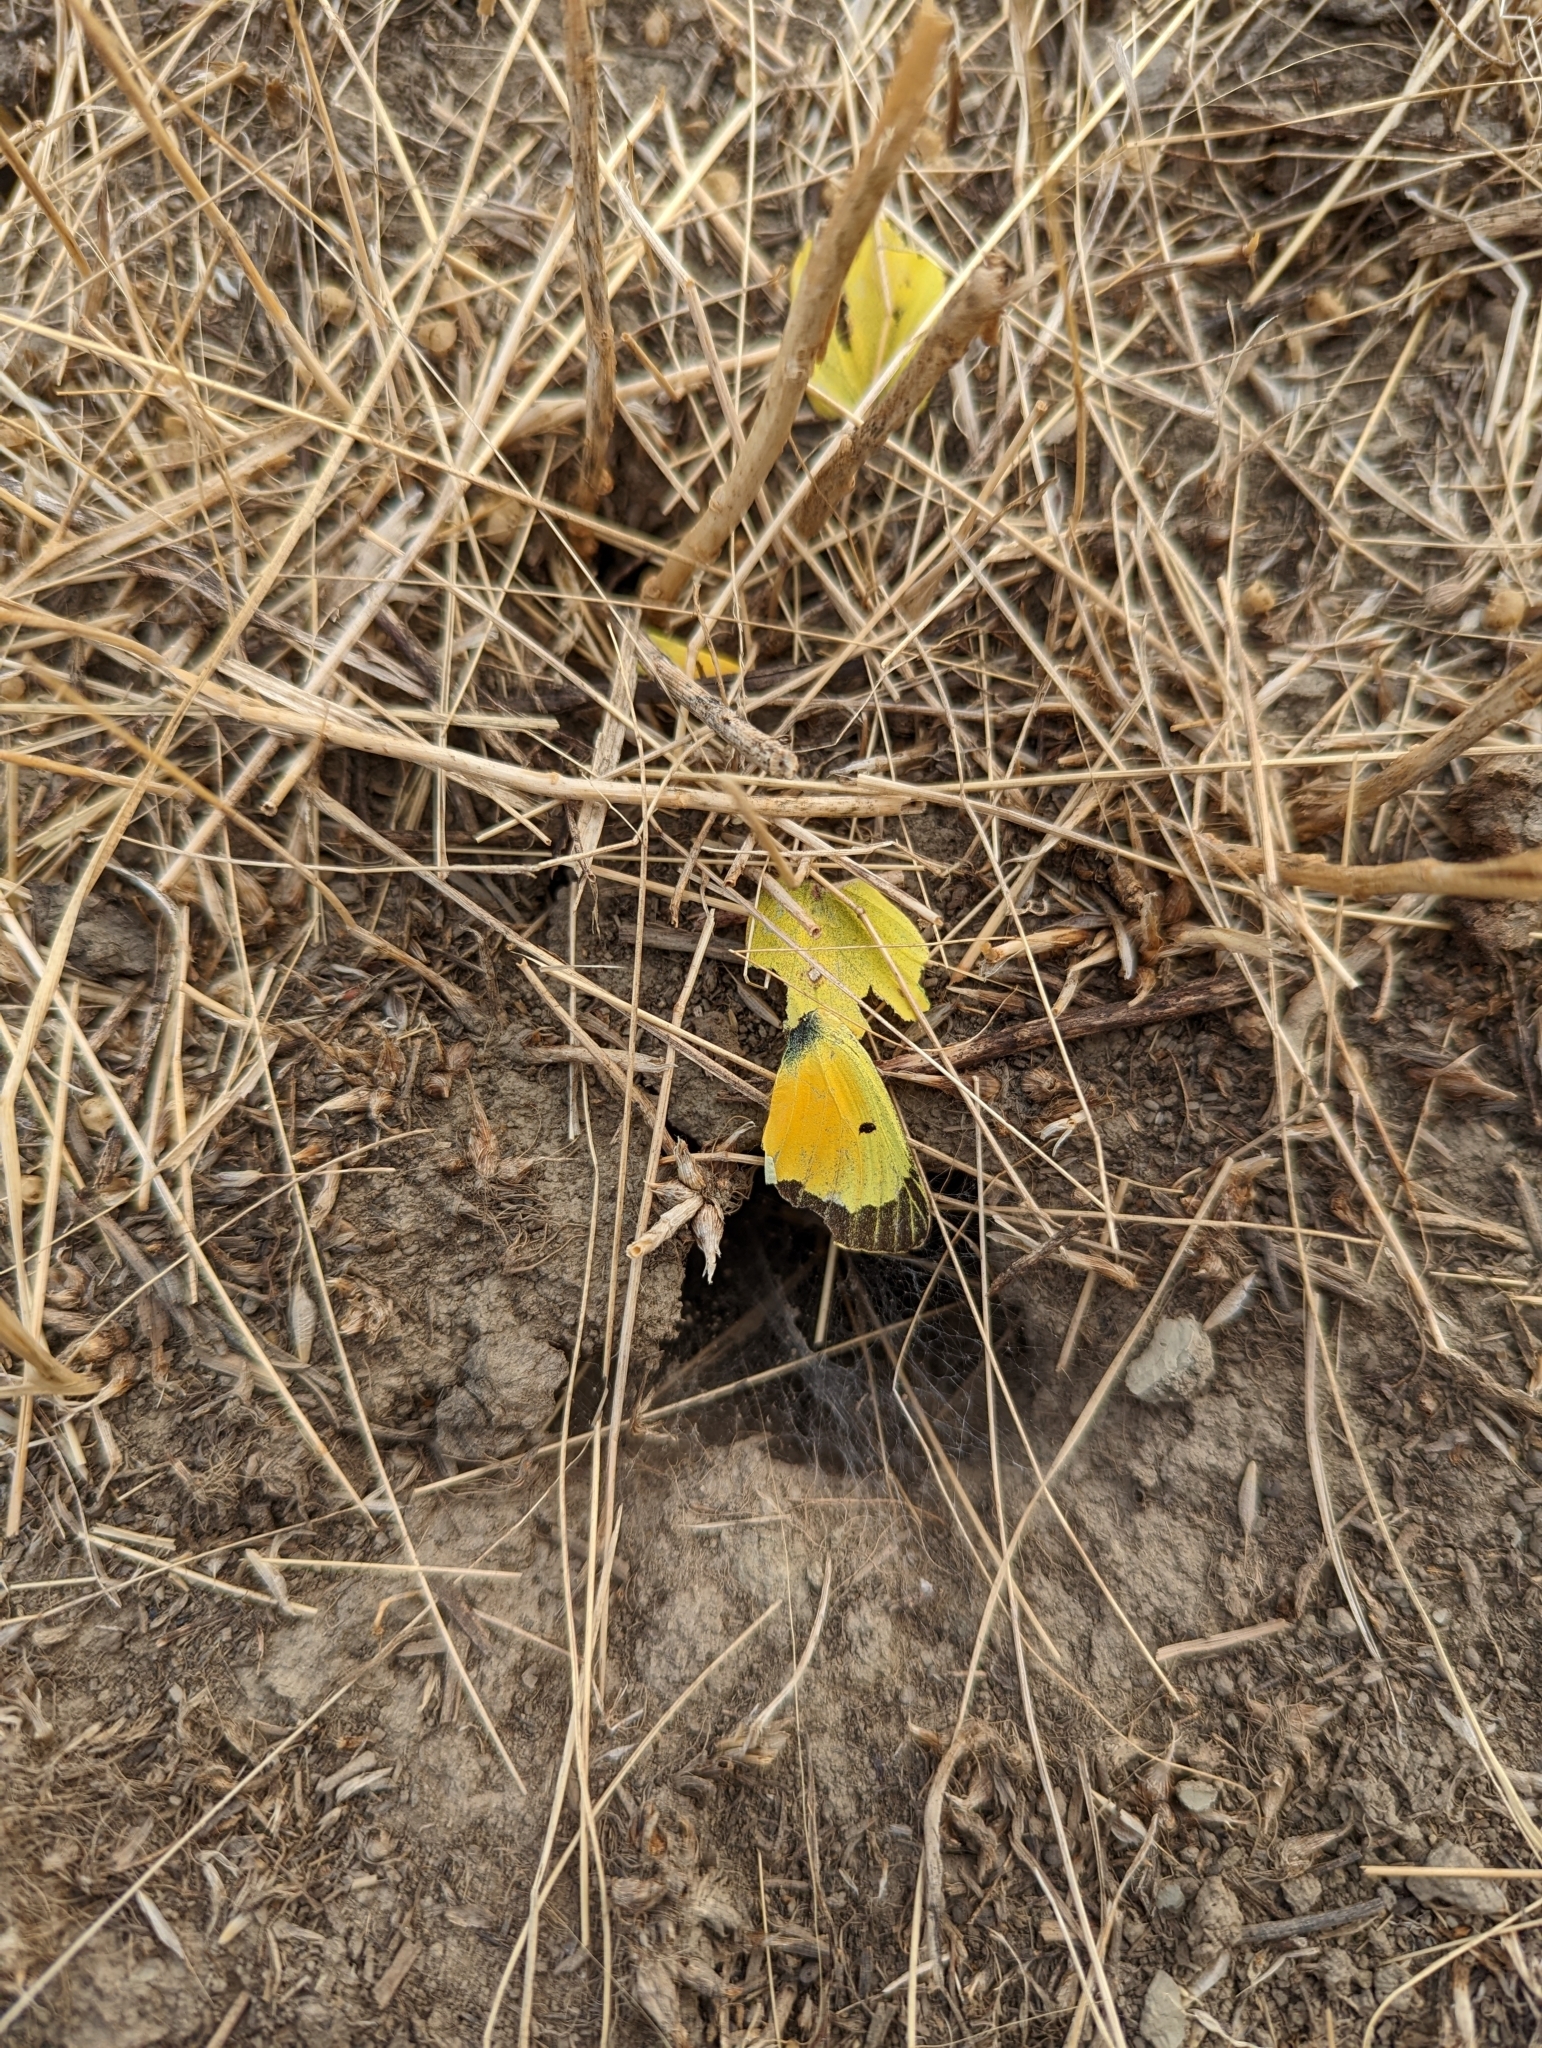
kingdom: Animalia
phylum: Arthropoda
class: Insecta
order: Lepidoptera
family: Pieridae
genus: Colias
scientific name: Colias eurytheme
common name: Alfalfa butterfly
